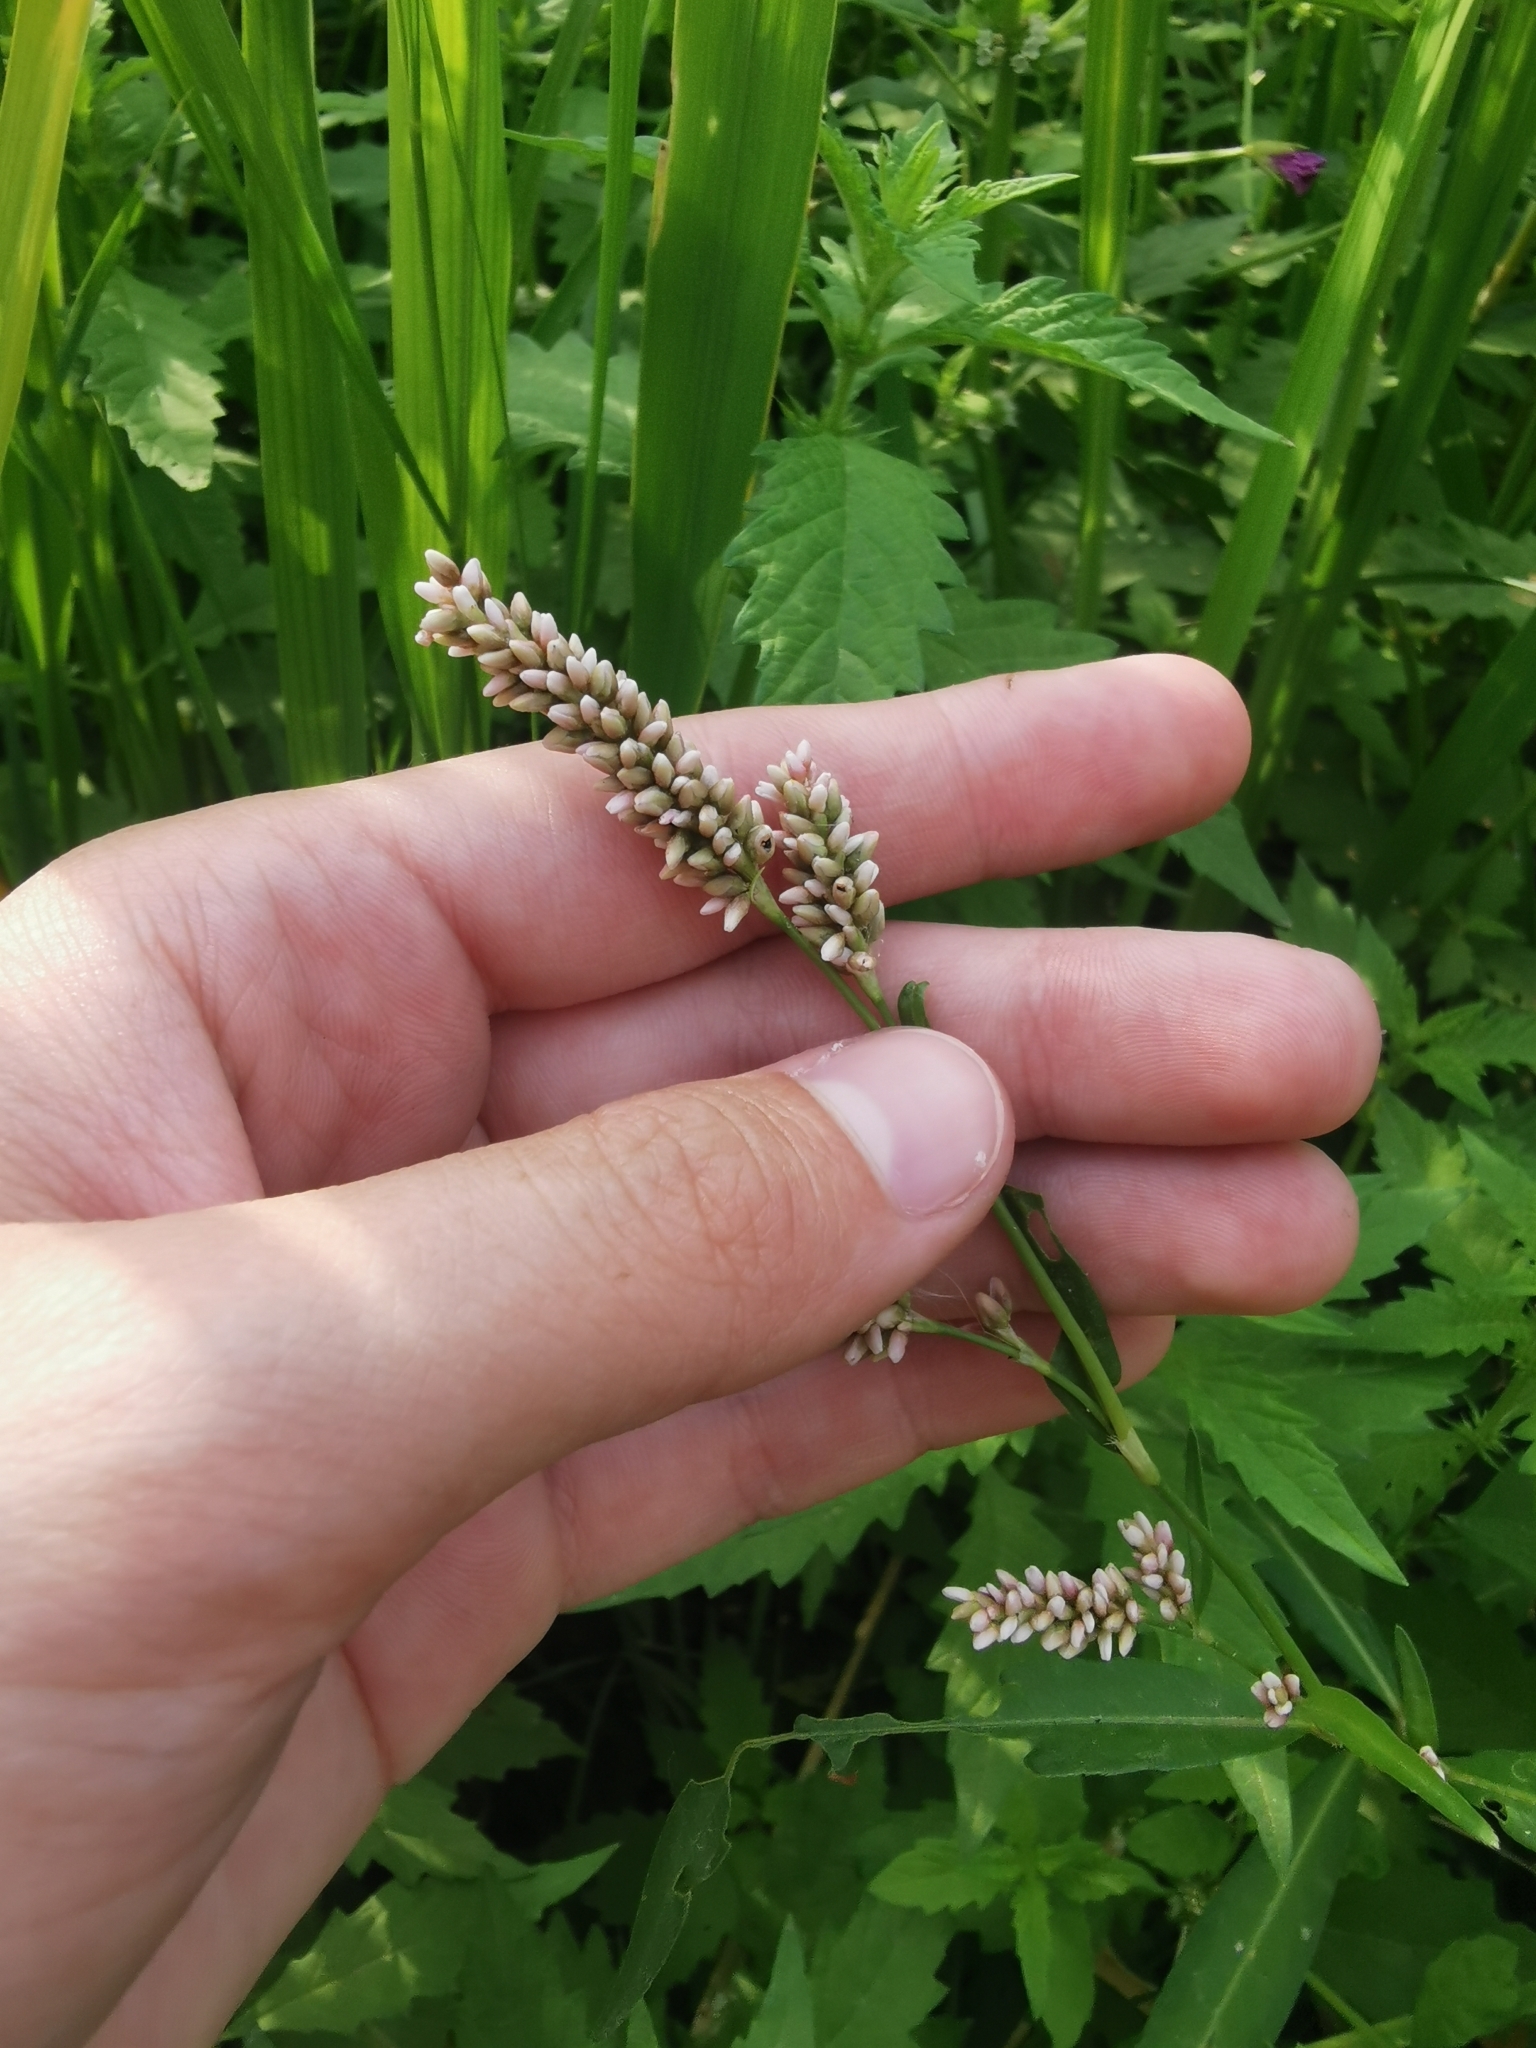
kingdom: Plantae
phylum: Tracheophyta
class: Magnoliopsida
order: Caryophyllales
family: Polygonaceae
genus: Persicaria
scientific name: Persicaria maculosa
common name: Redshank
